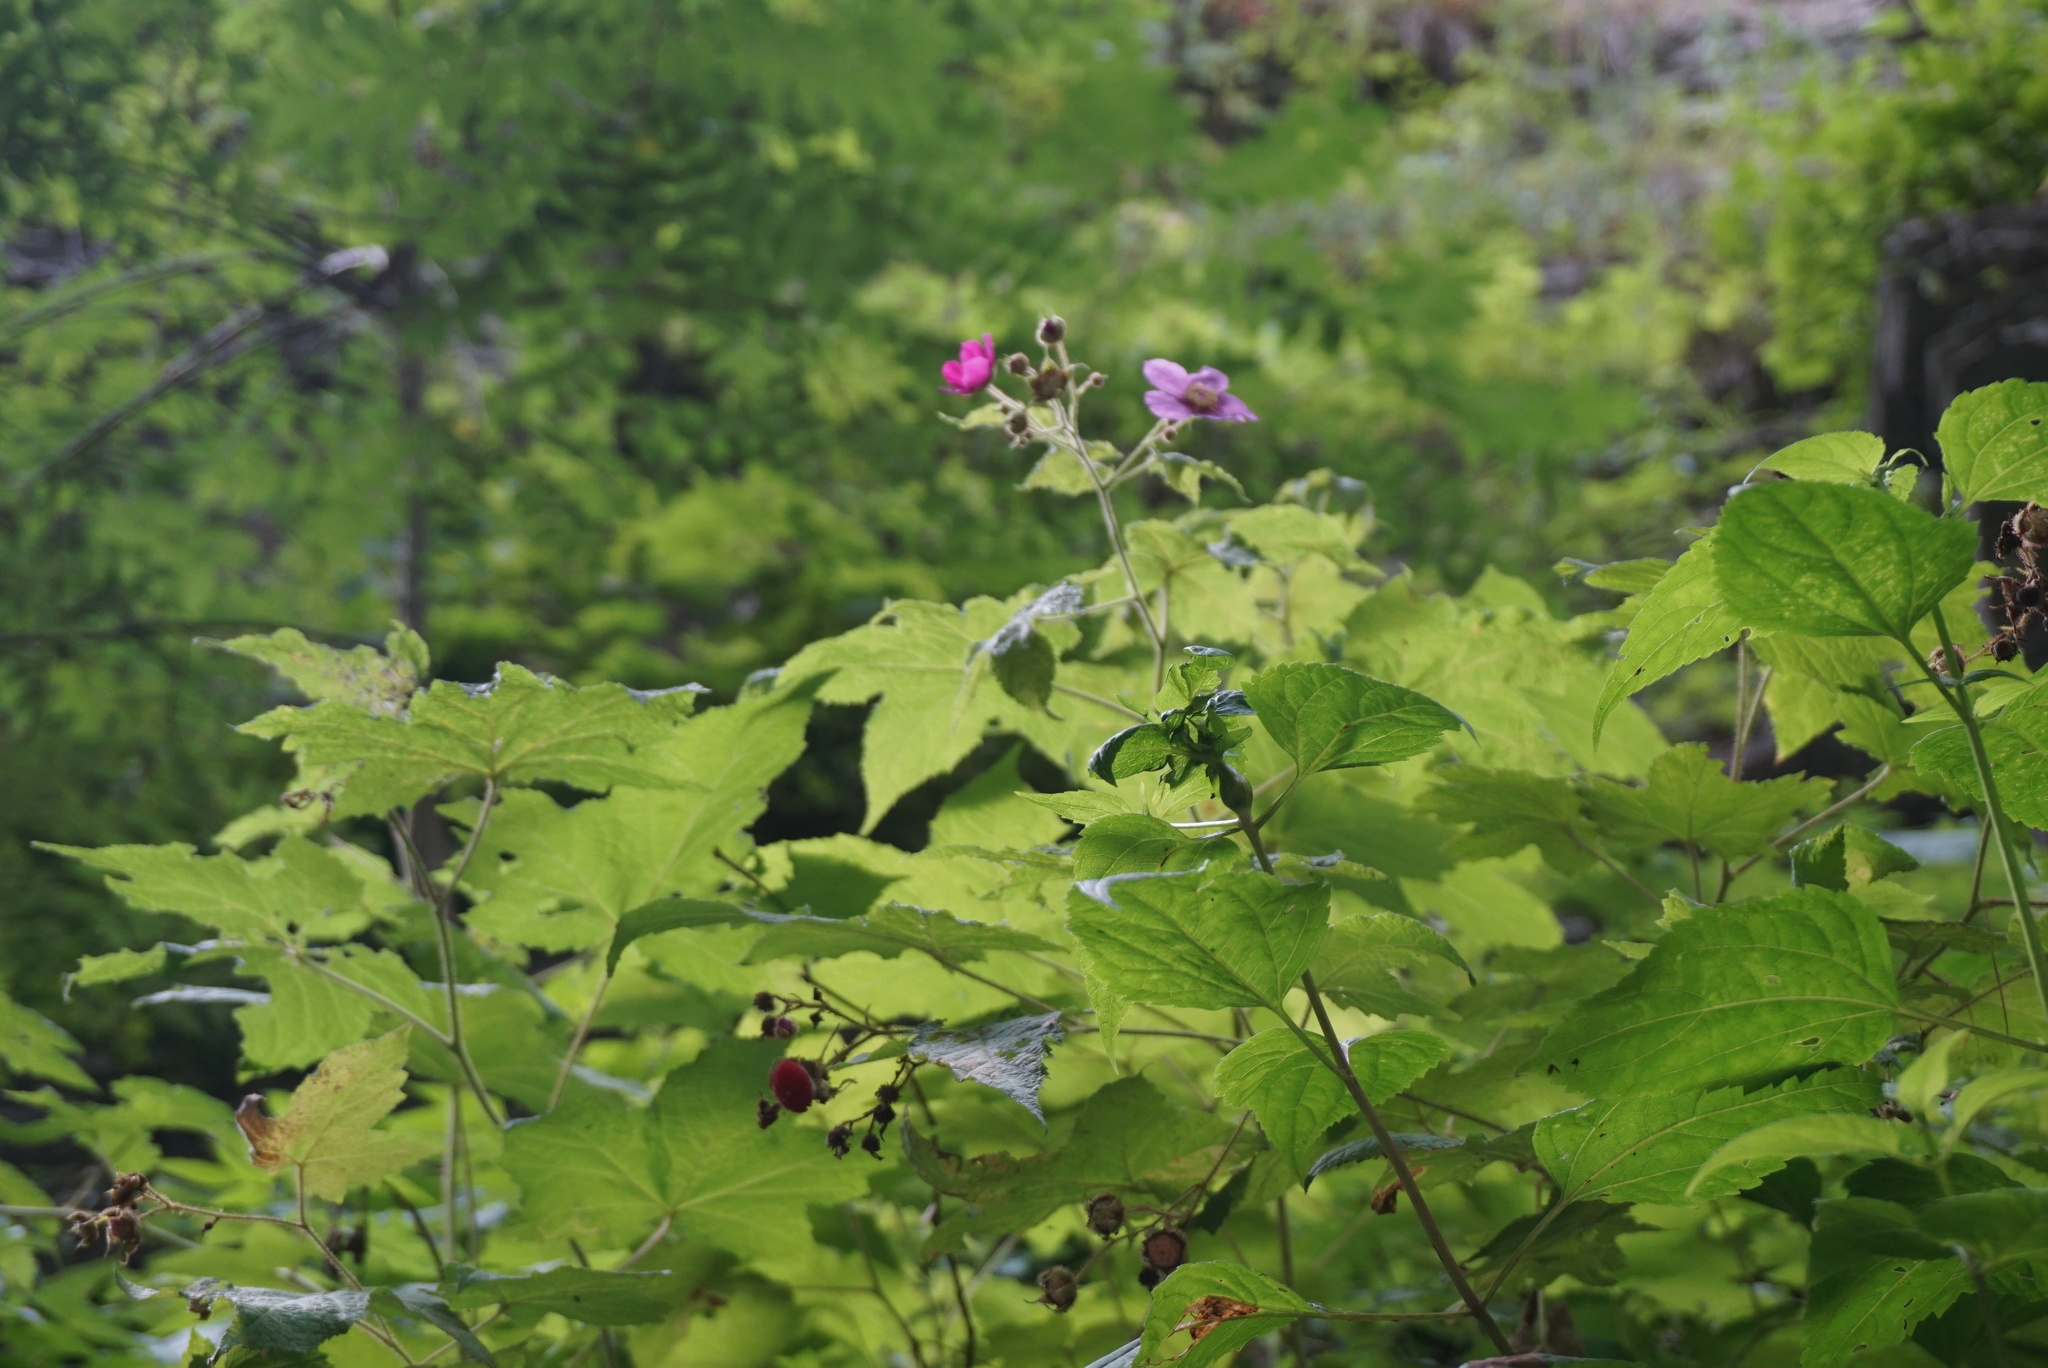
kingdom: Plantae
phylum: Tracheophyta
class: Magnoliopsida
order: Rosales
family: Rosaceae
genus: Rubus
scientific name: Rubus odoratus
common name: Purple-flowered raspberry
